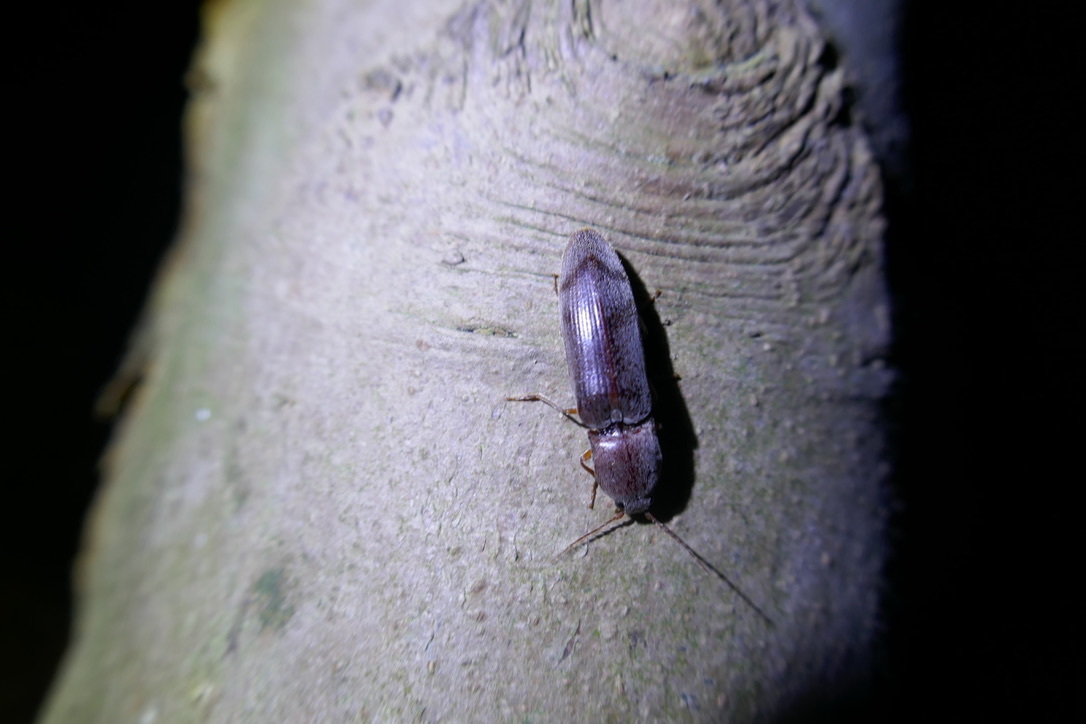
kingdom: Animalia
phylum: Arthropoda
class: Insecta
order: Coleoptera
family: Elateridae
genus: Stenagostus
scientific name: Stenagostus rhombeus
